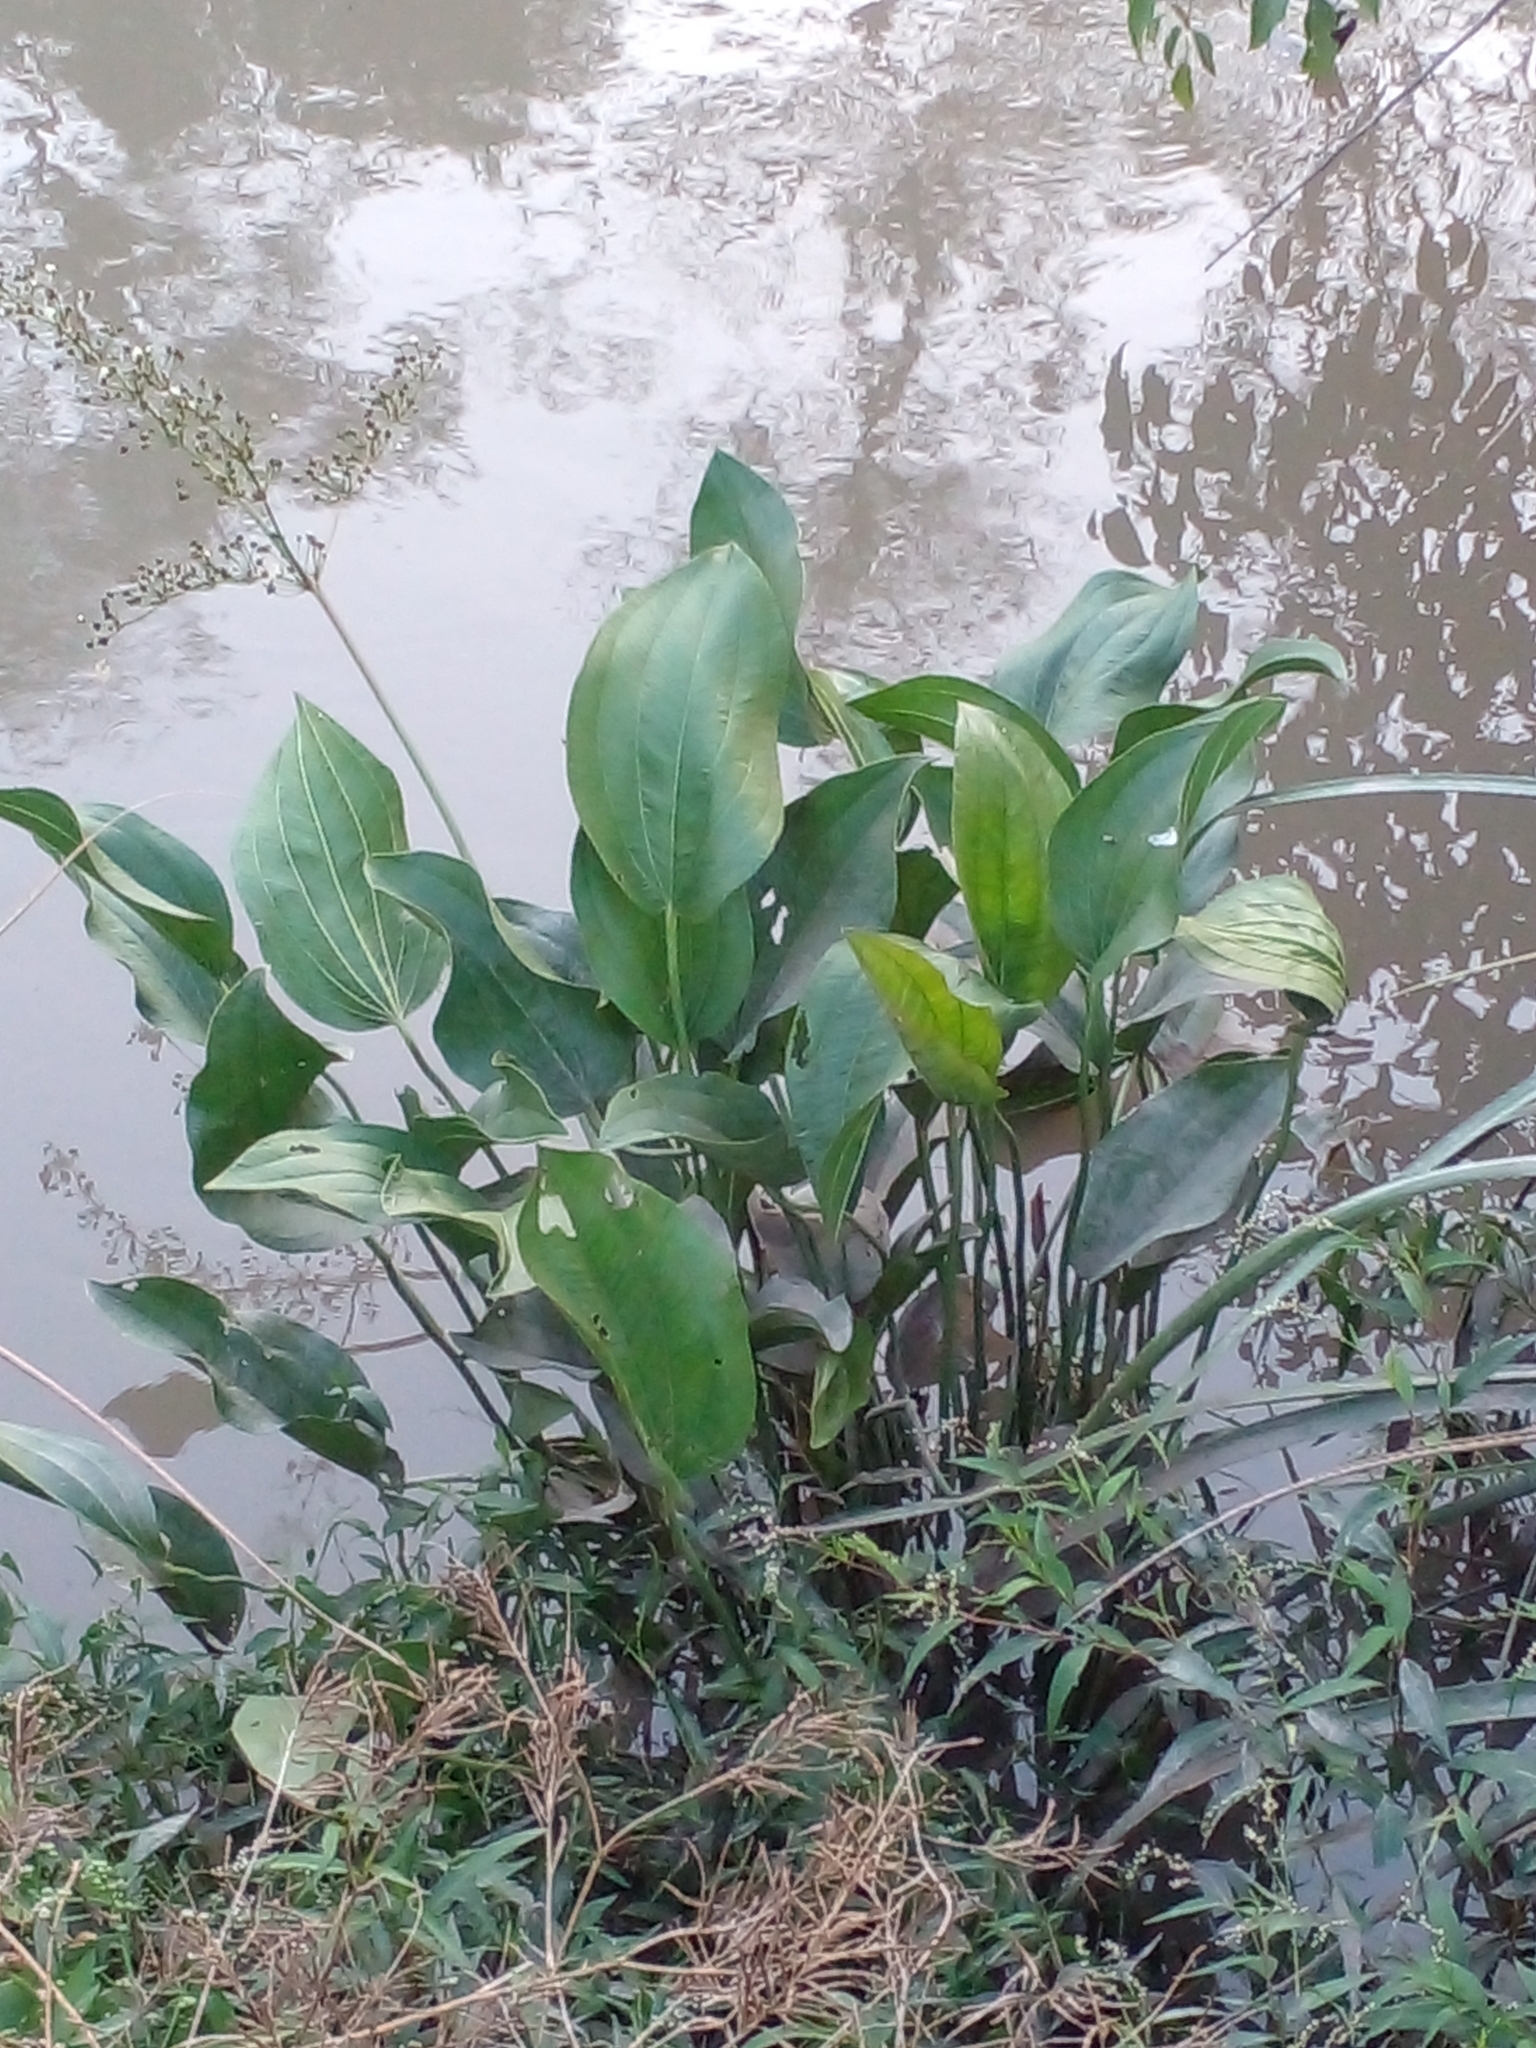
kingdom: Plantae
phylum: Tracheophyta
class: Liliopsida
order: Alismatales
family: Alismataceae
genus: Aquarius
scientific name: Aquarius grandiflorus
